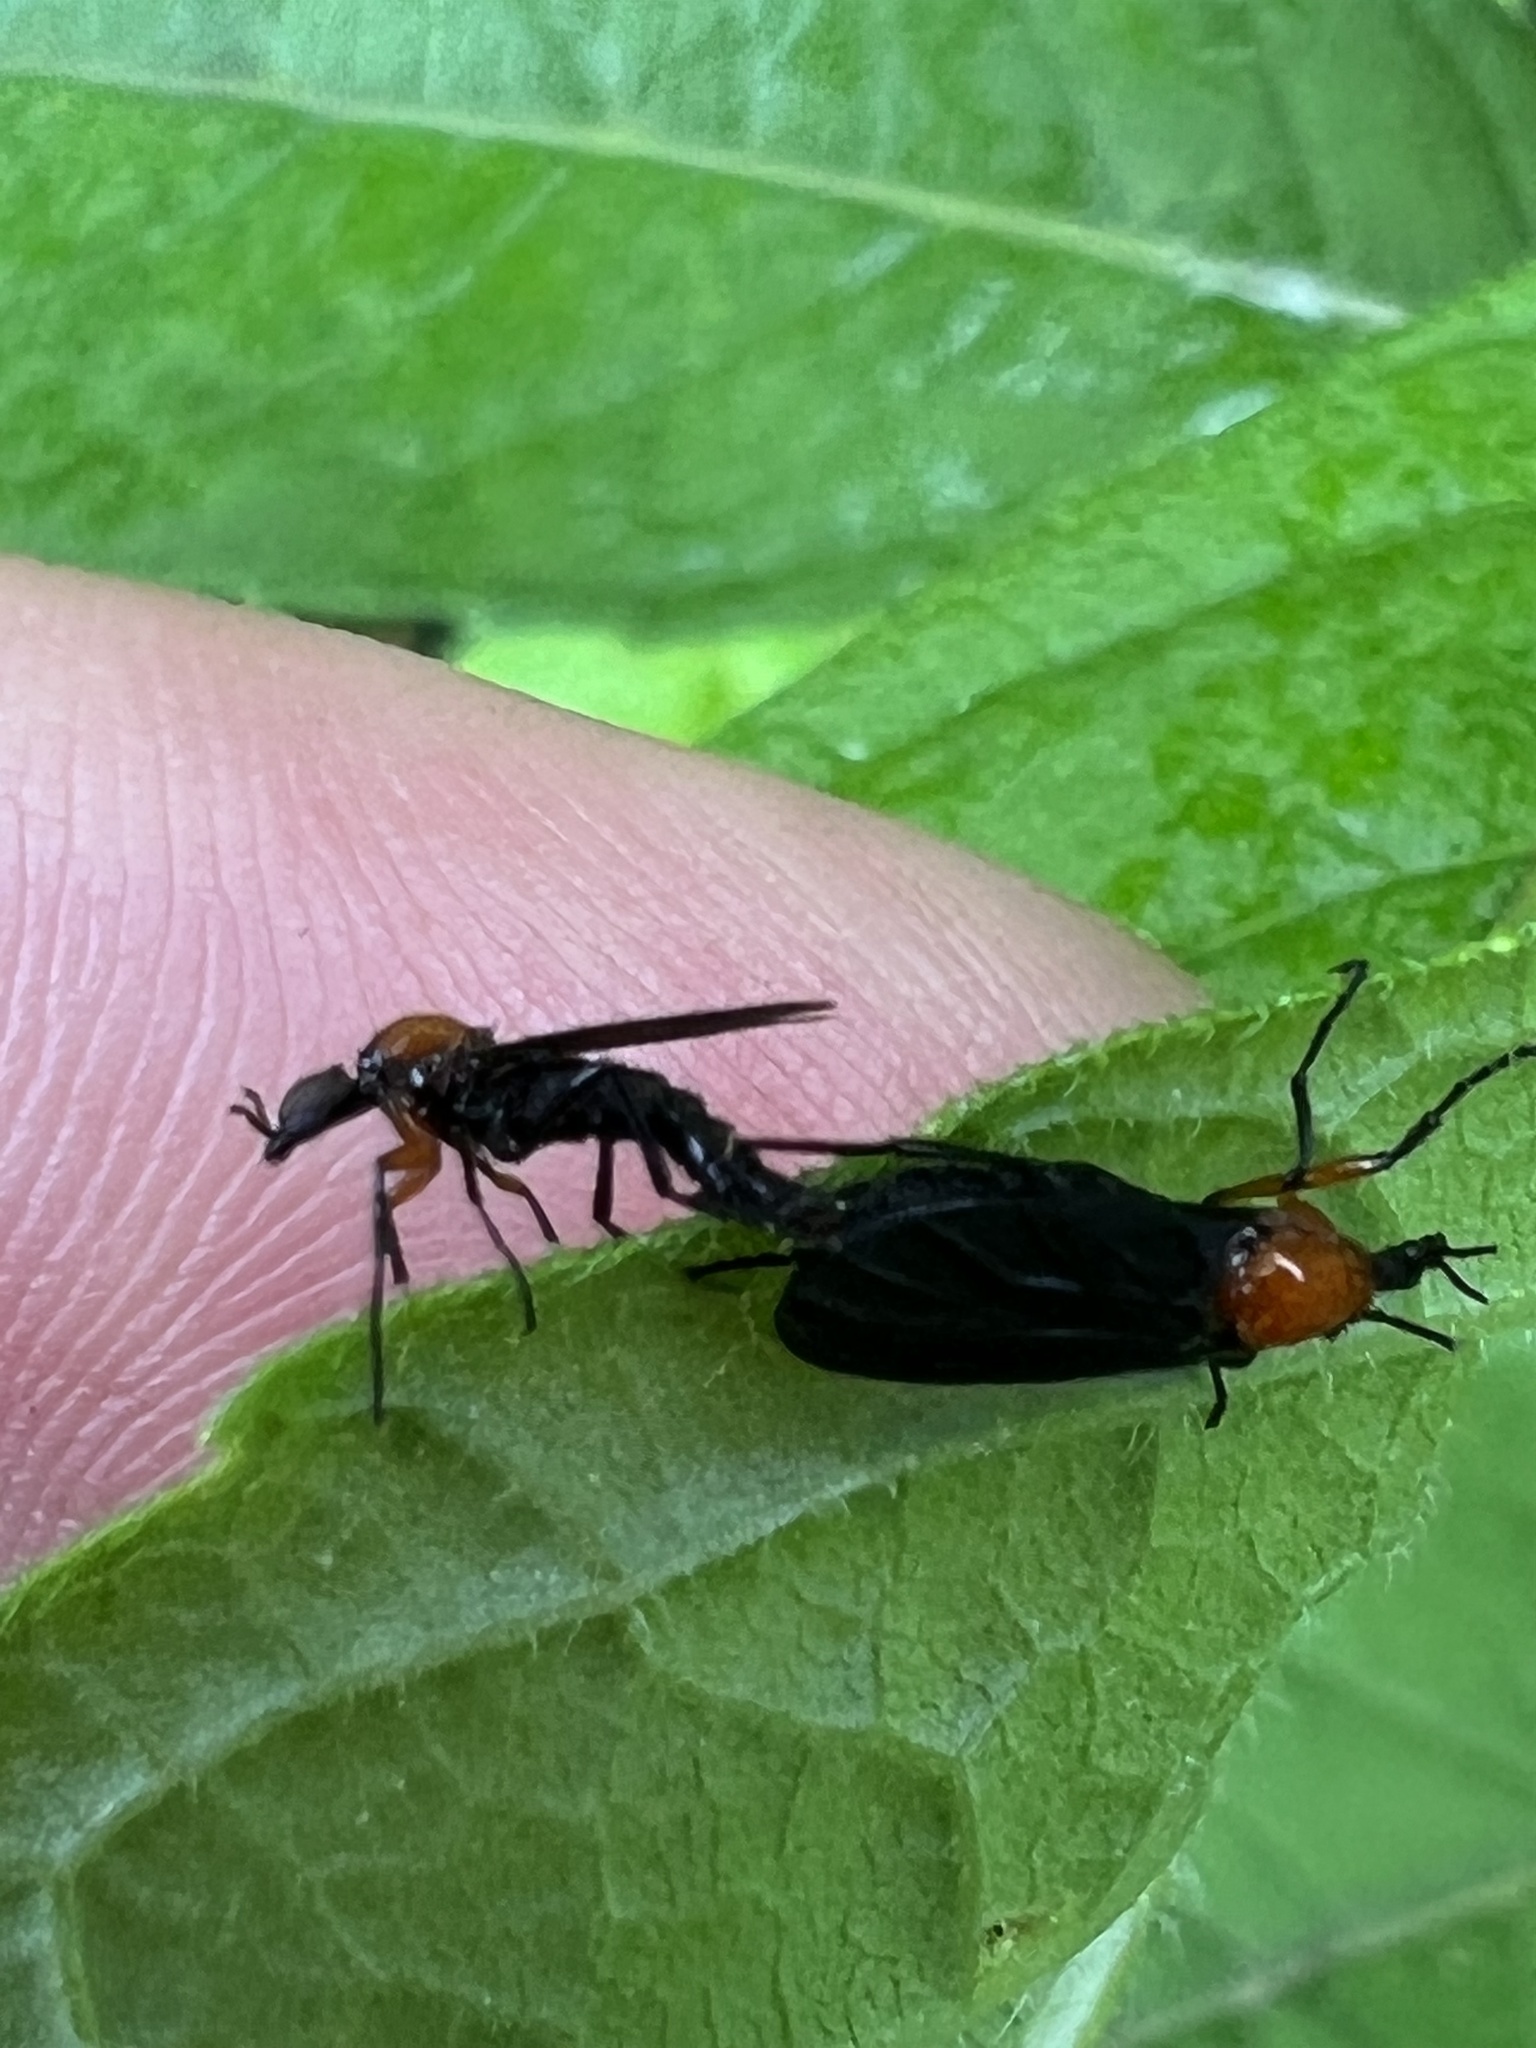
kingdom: Animalia
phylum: Arthropoda
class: Insecta
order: Diptera
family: Bibionidae
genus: Dilophus
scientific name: Dilophus spinipes
